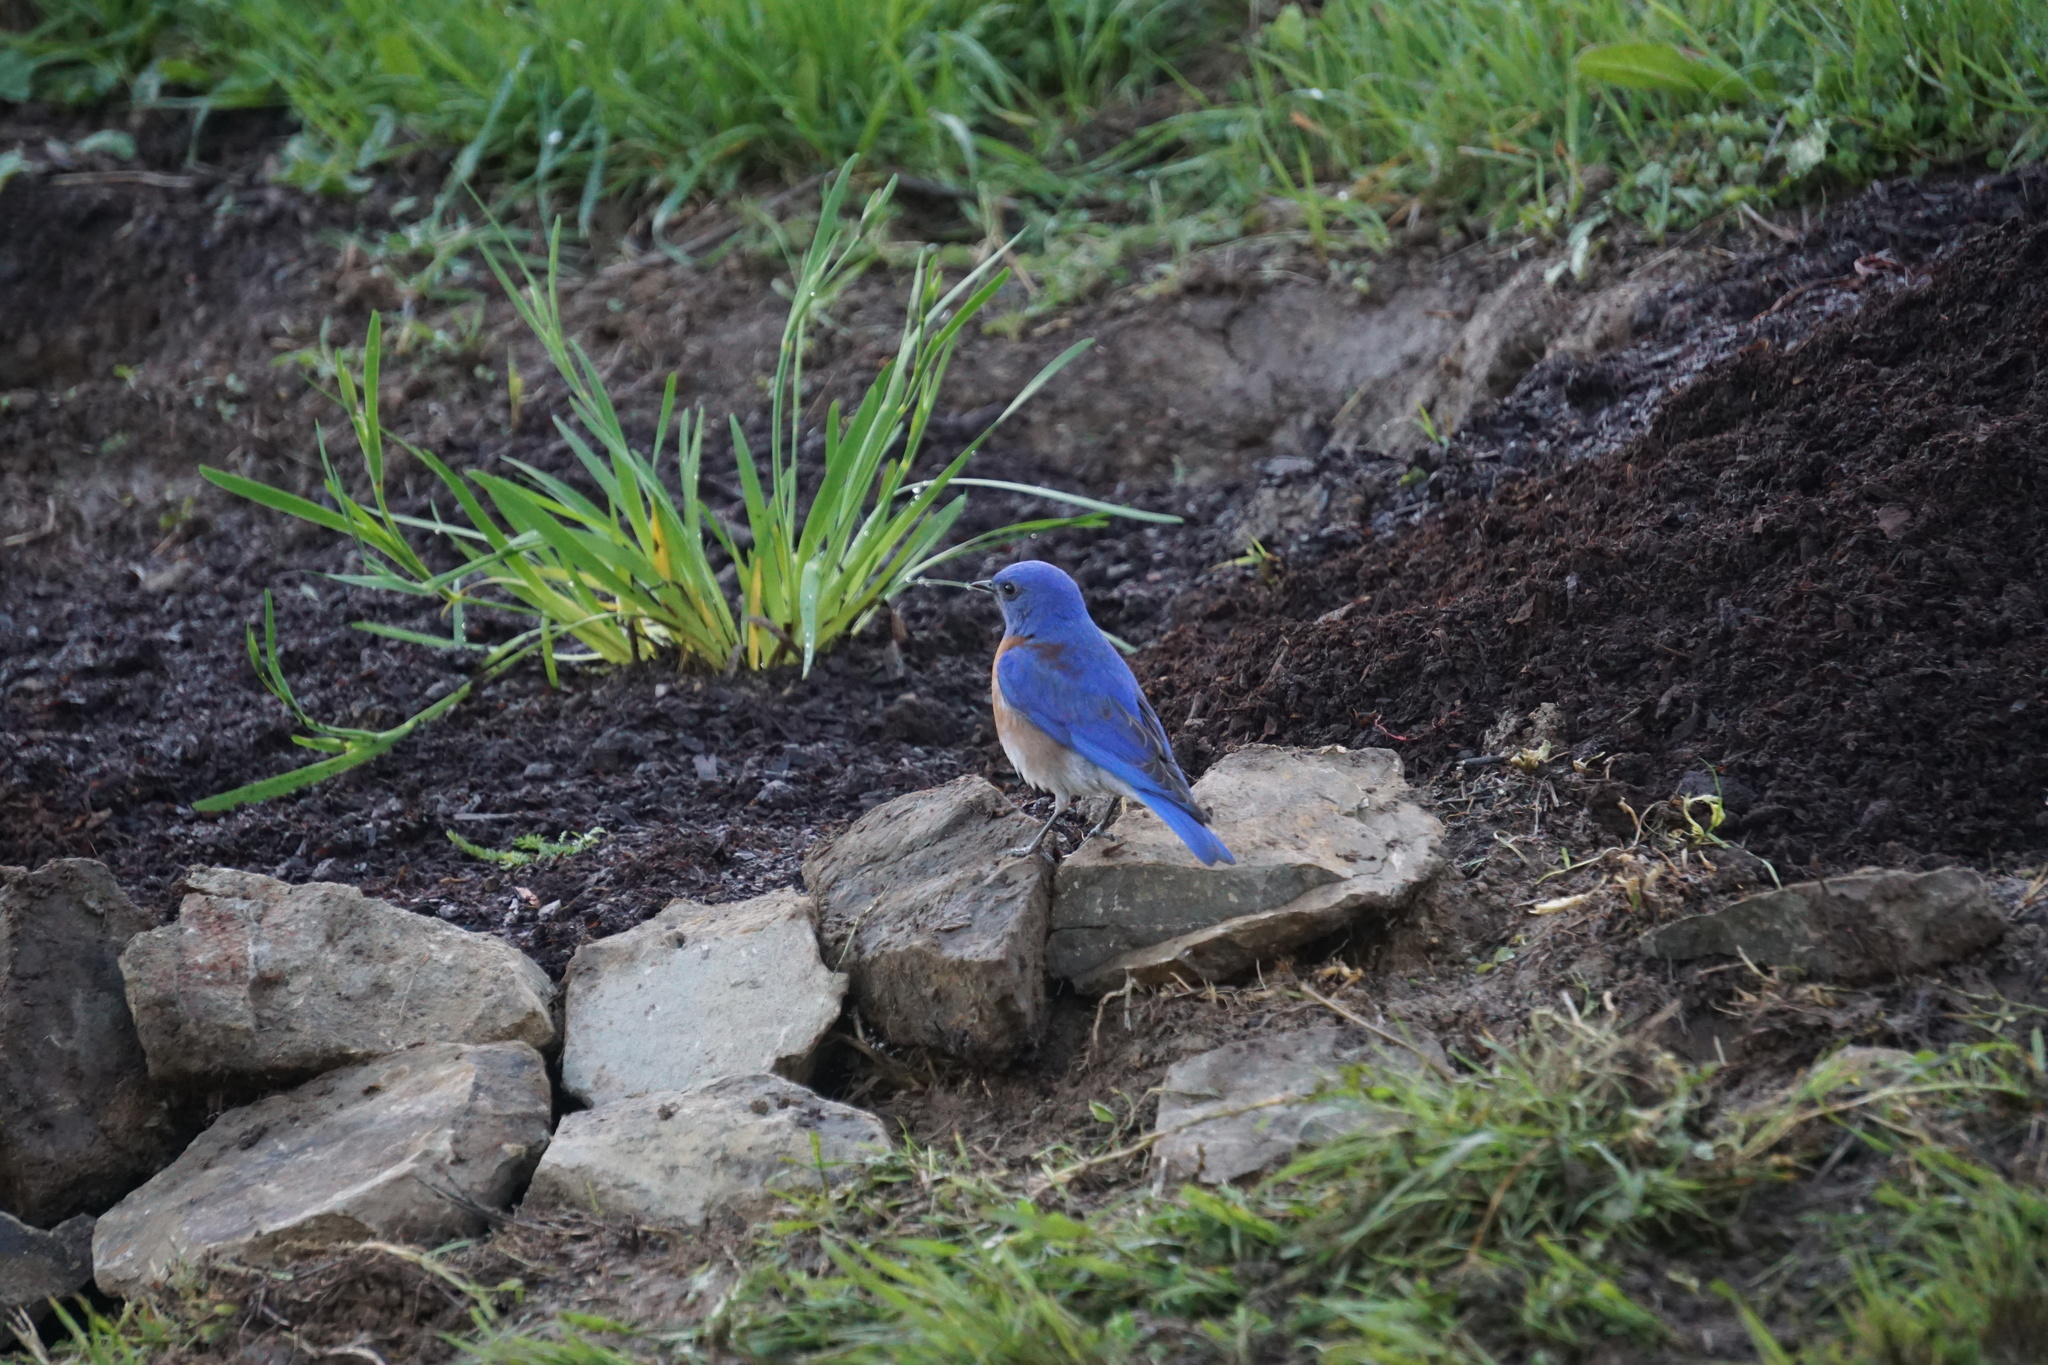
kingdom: Animalia
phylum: Chordata
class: Aves
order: Passeriformes
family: Turdidae
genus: Sialia
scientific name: Sialia mexicana
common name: Western bluebird
